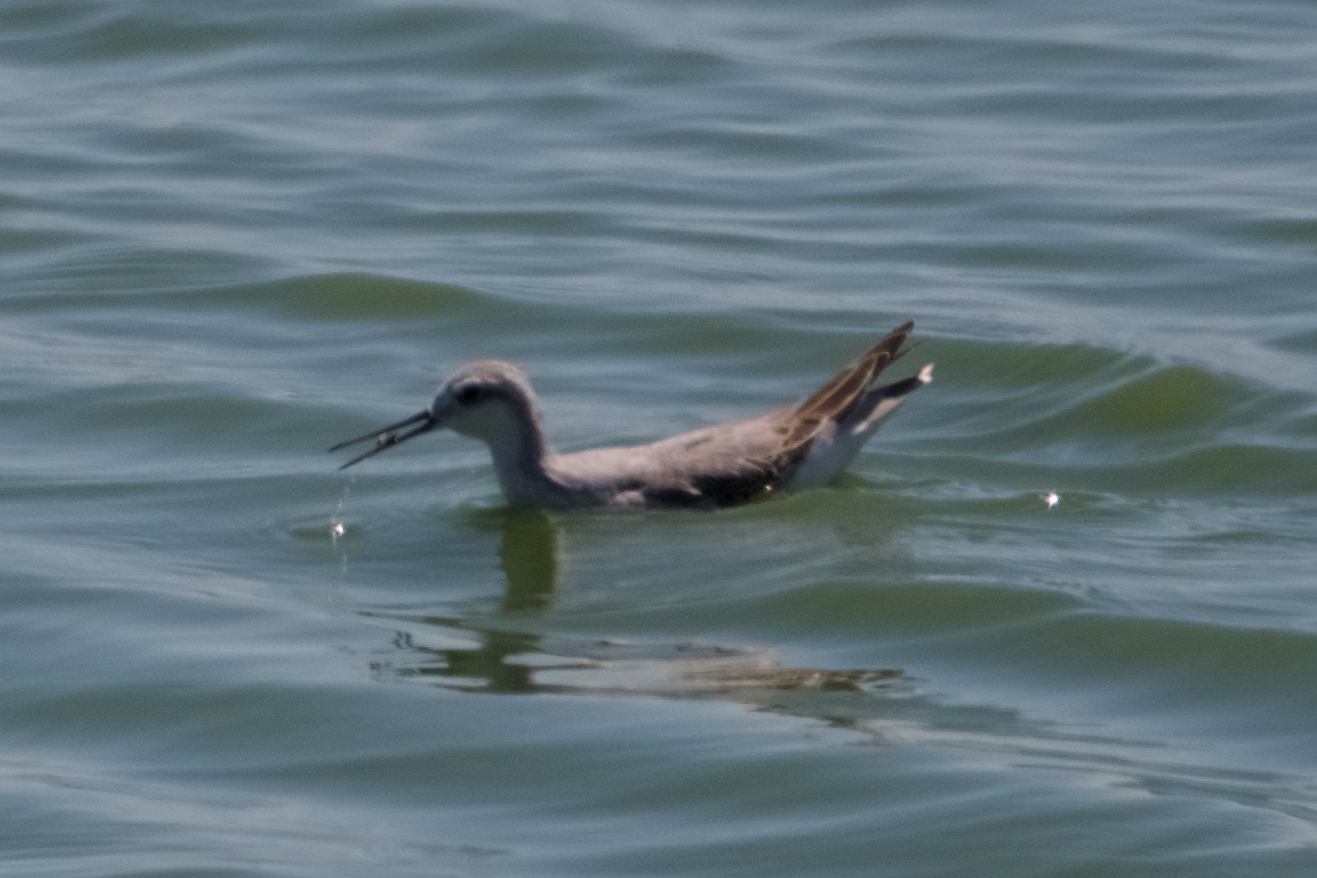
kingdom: Animalia
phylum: Chordata
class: Aves
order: Charadriiformes
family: Scolopacidae
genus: Phalaropus
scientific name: Phalaropus tricolor
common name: Wilson's phalarope
